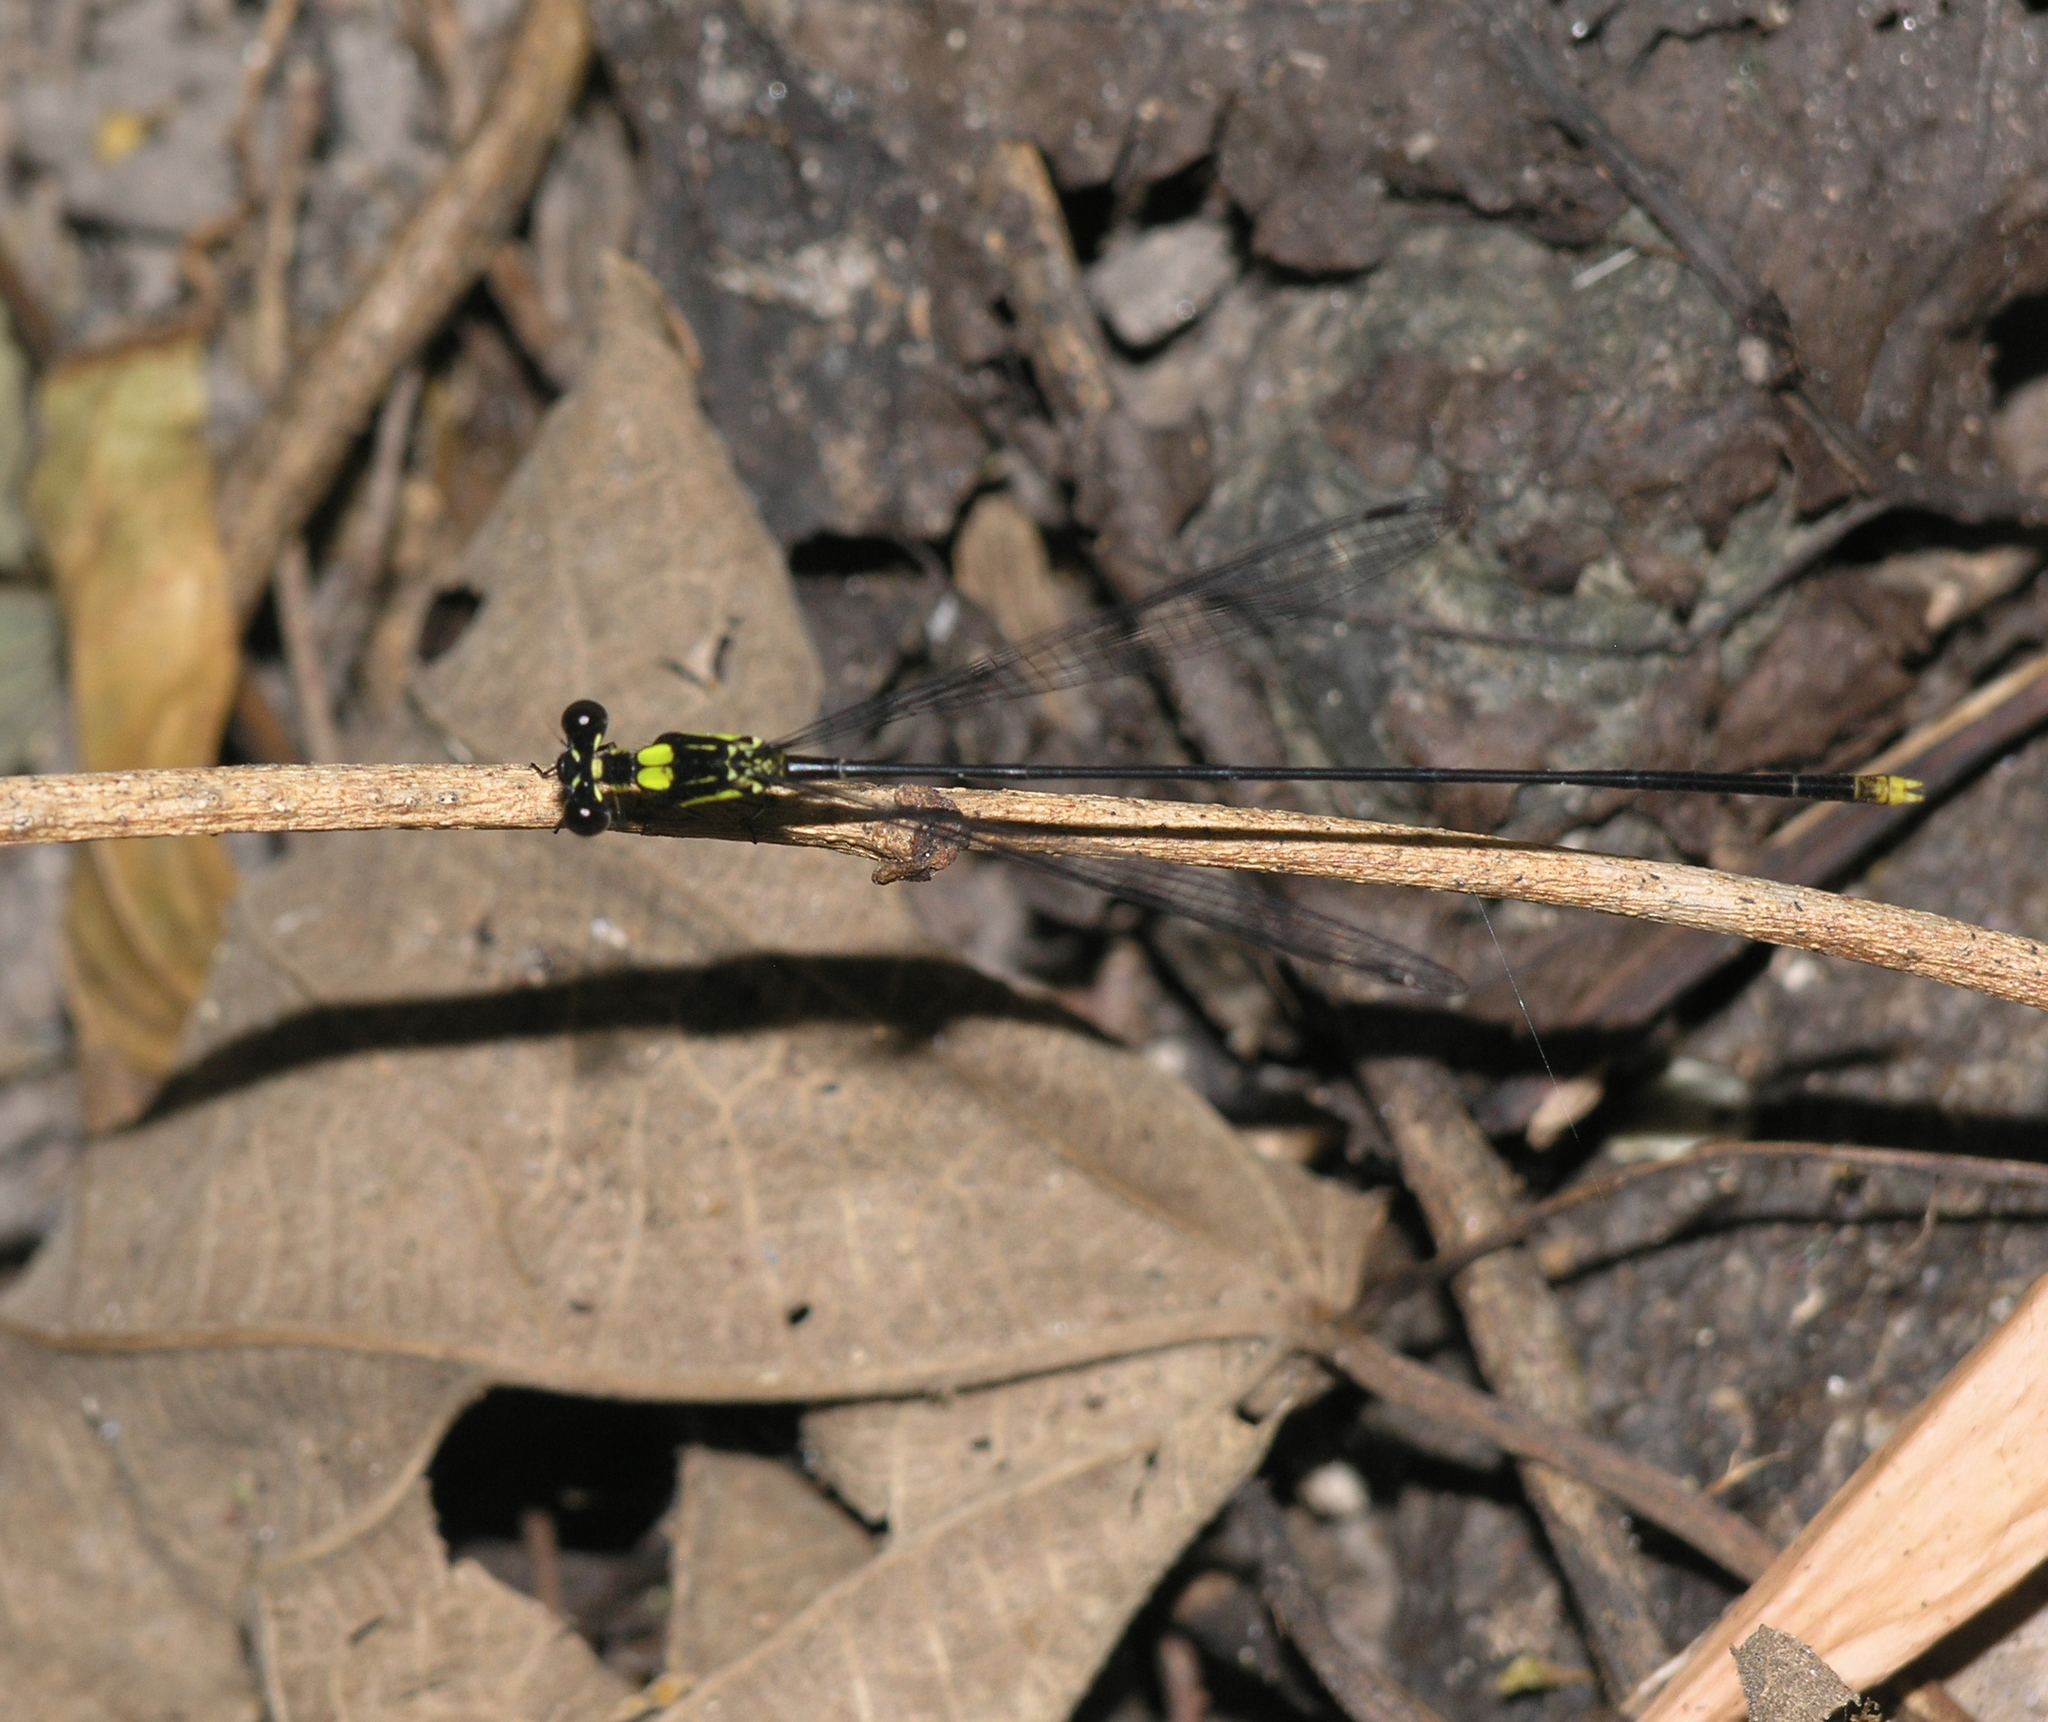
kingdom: Animalia
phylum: Arthropoda
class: Insecta
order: Odonata
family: Platycnemididae
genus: Coeliccia
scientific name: Coeliccia yamasakii
